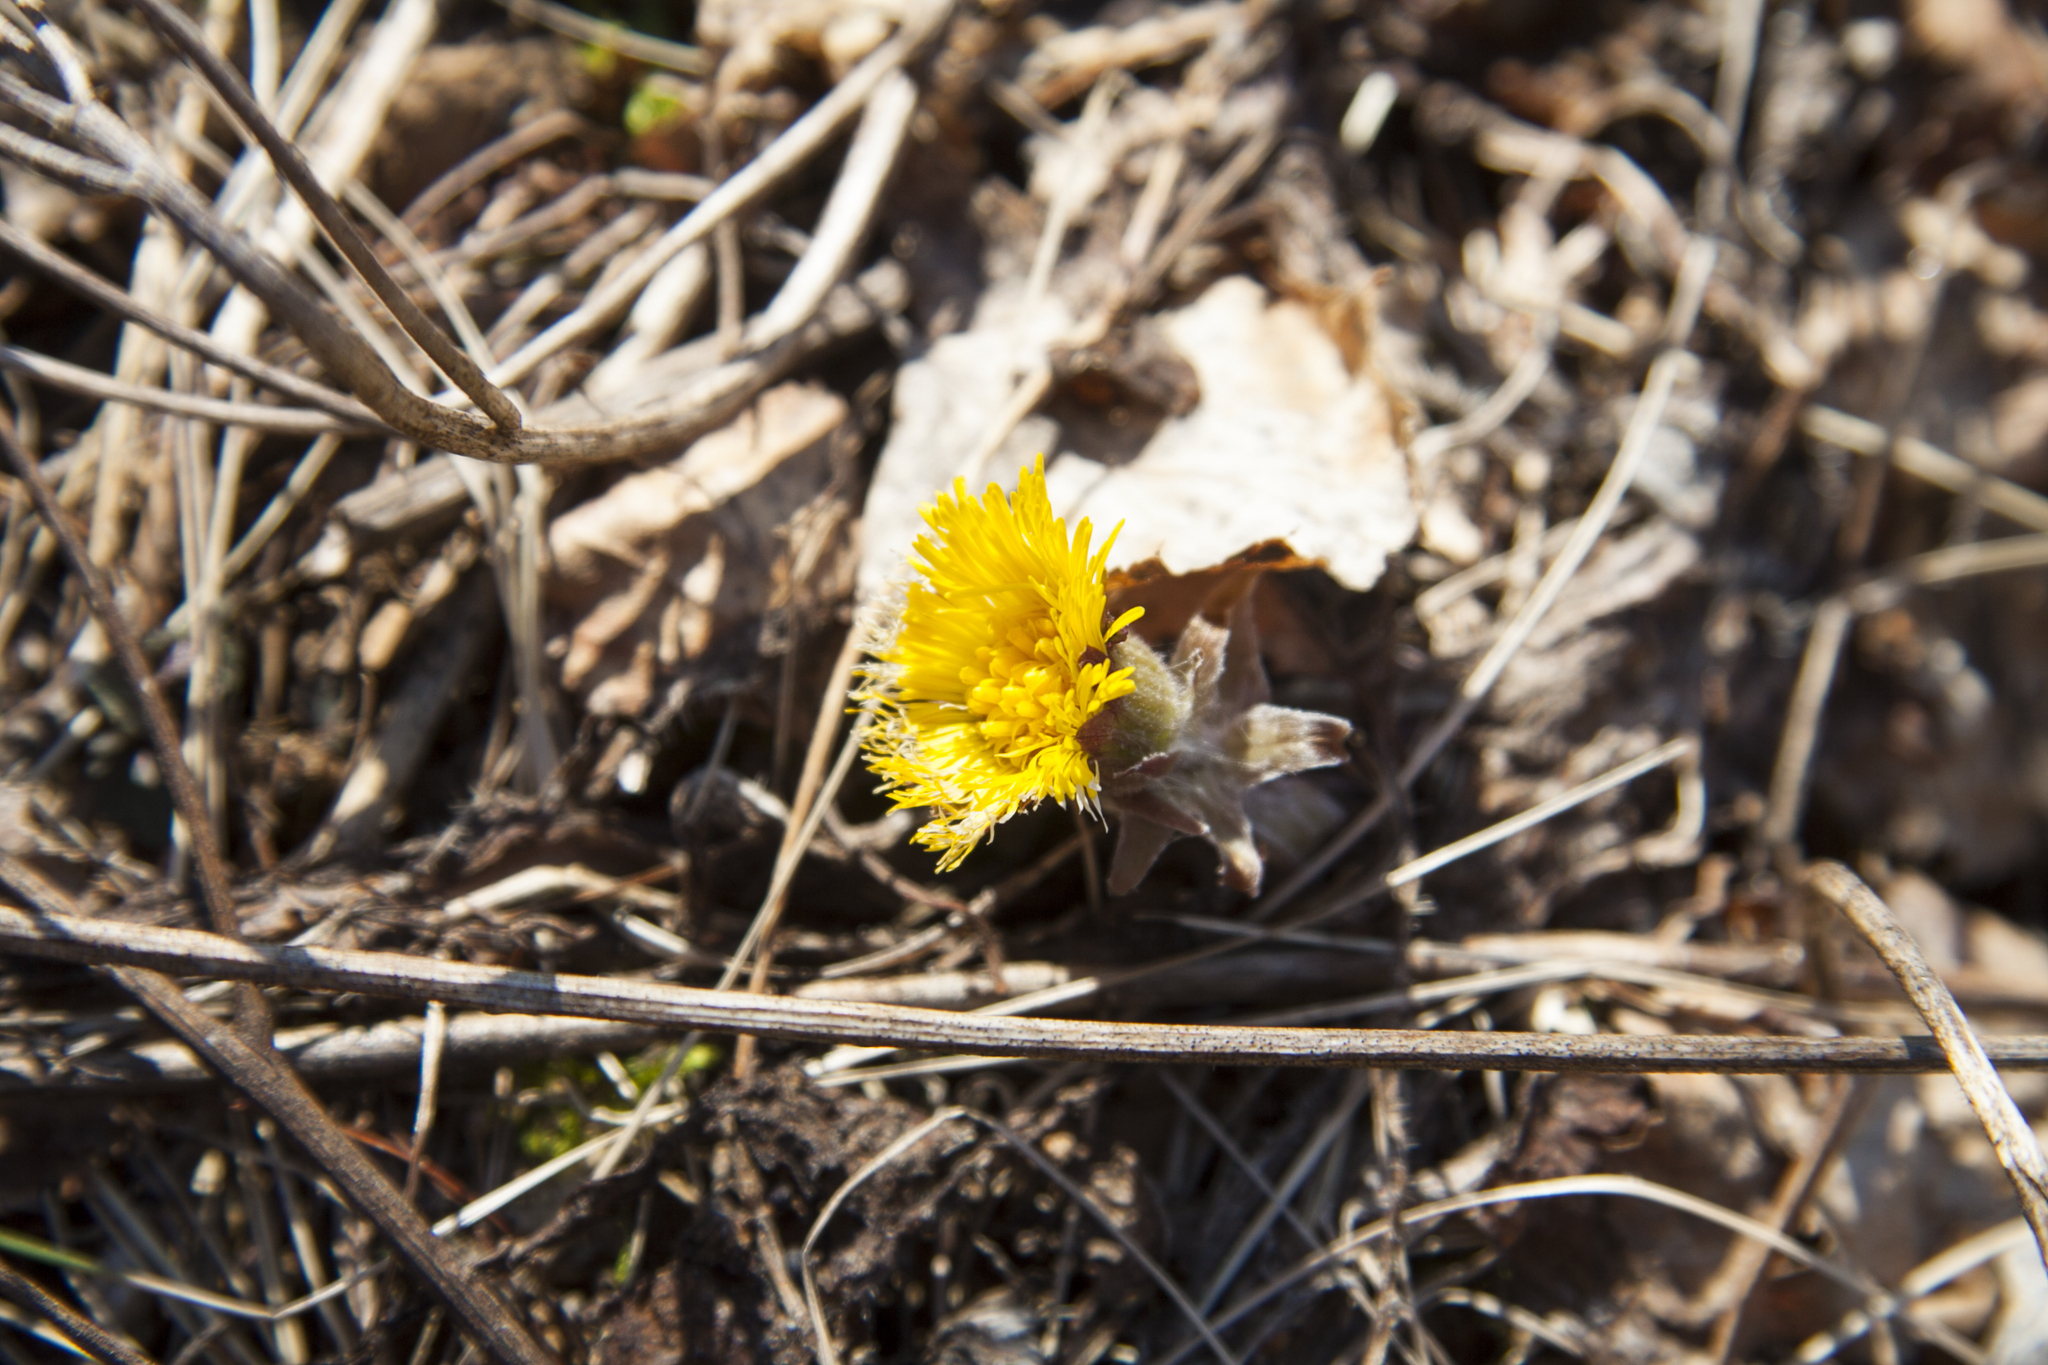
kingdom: Plantae
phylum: Tracheophyta
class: Magnoliopsida
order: Asterales
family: Asteraceae
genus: Tussilago
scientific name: Tussilago farfara
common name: Coltsfoot
